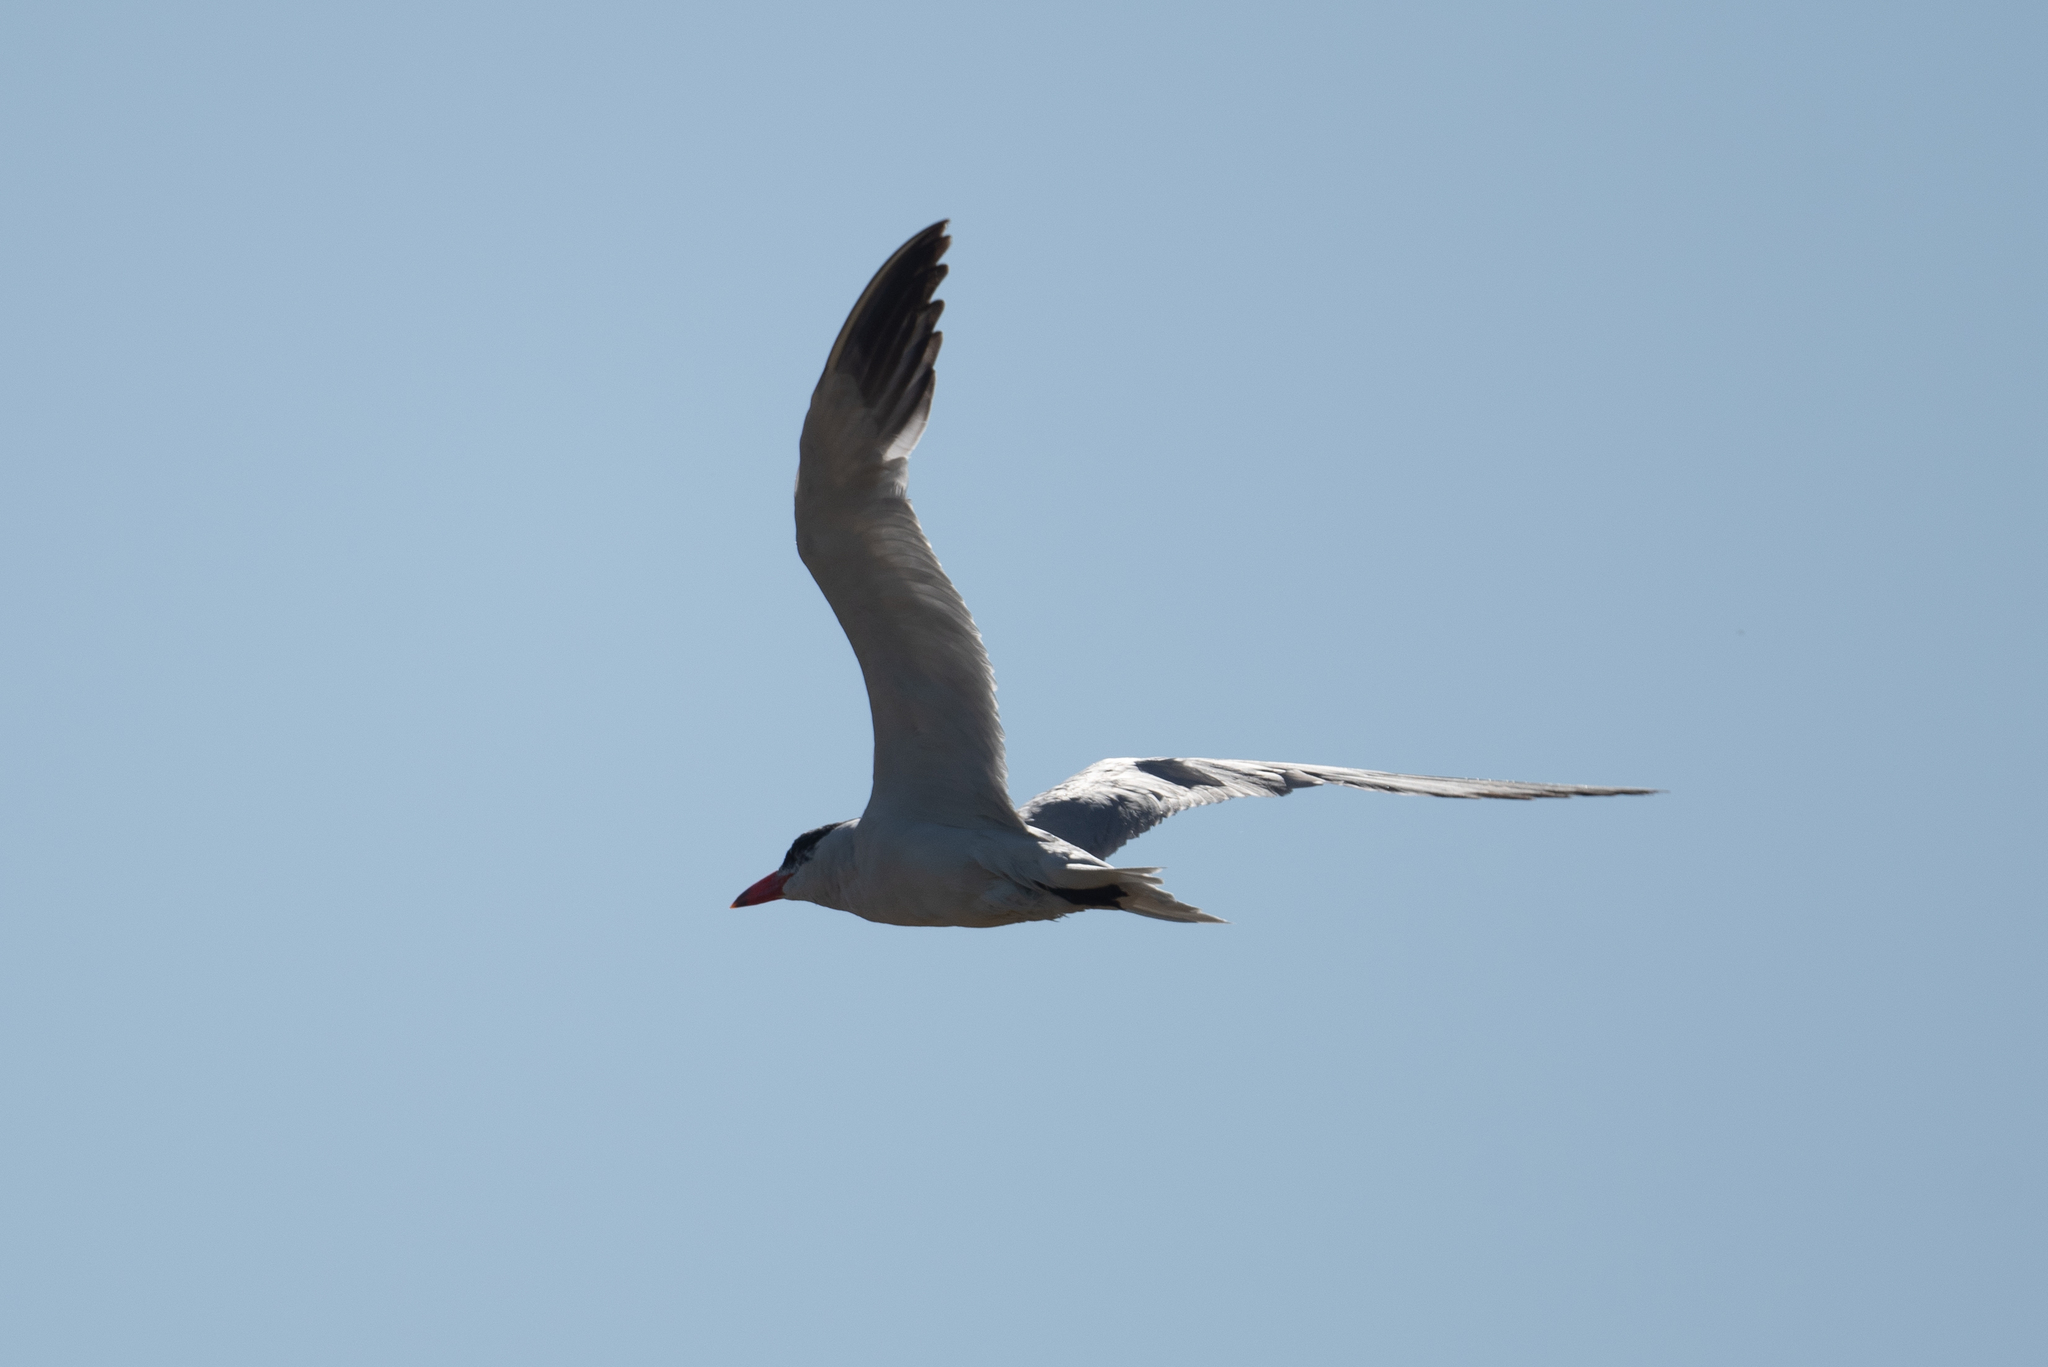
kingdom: Animalia
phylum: Chordata
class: Aves
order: Charadriiformes
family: Laridae
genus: Hydroprogne
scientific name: Hydroprogne caspia
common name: Caspian tern
